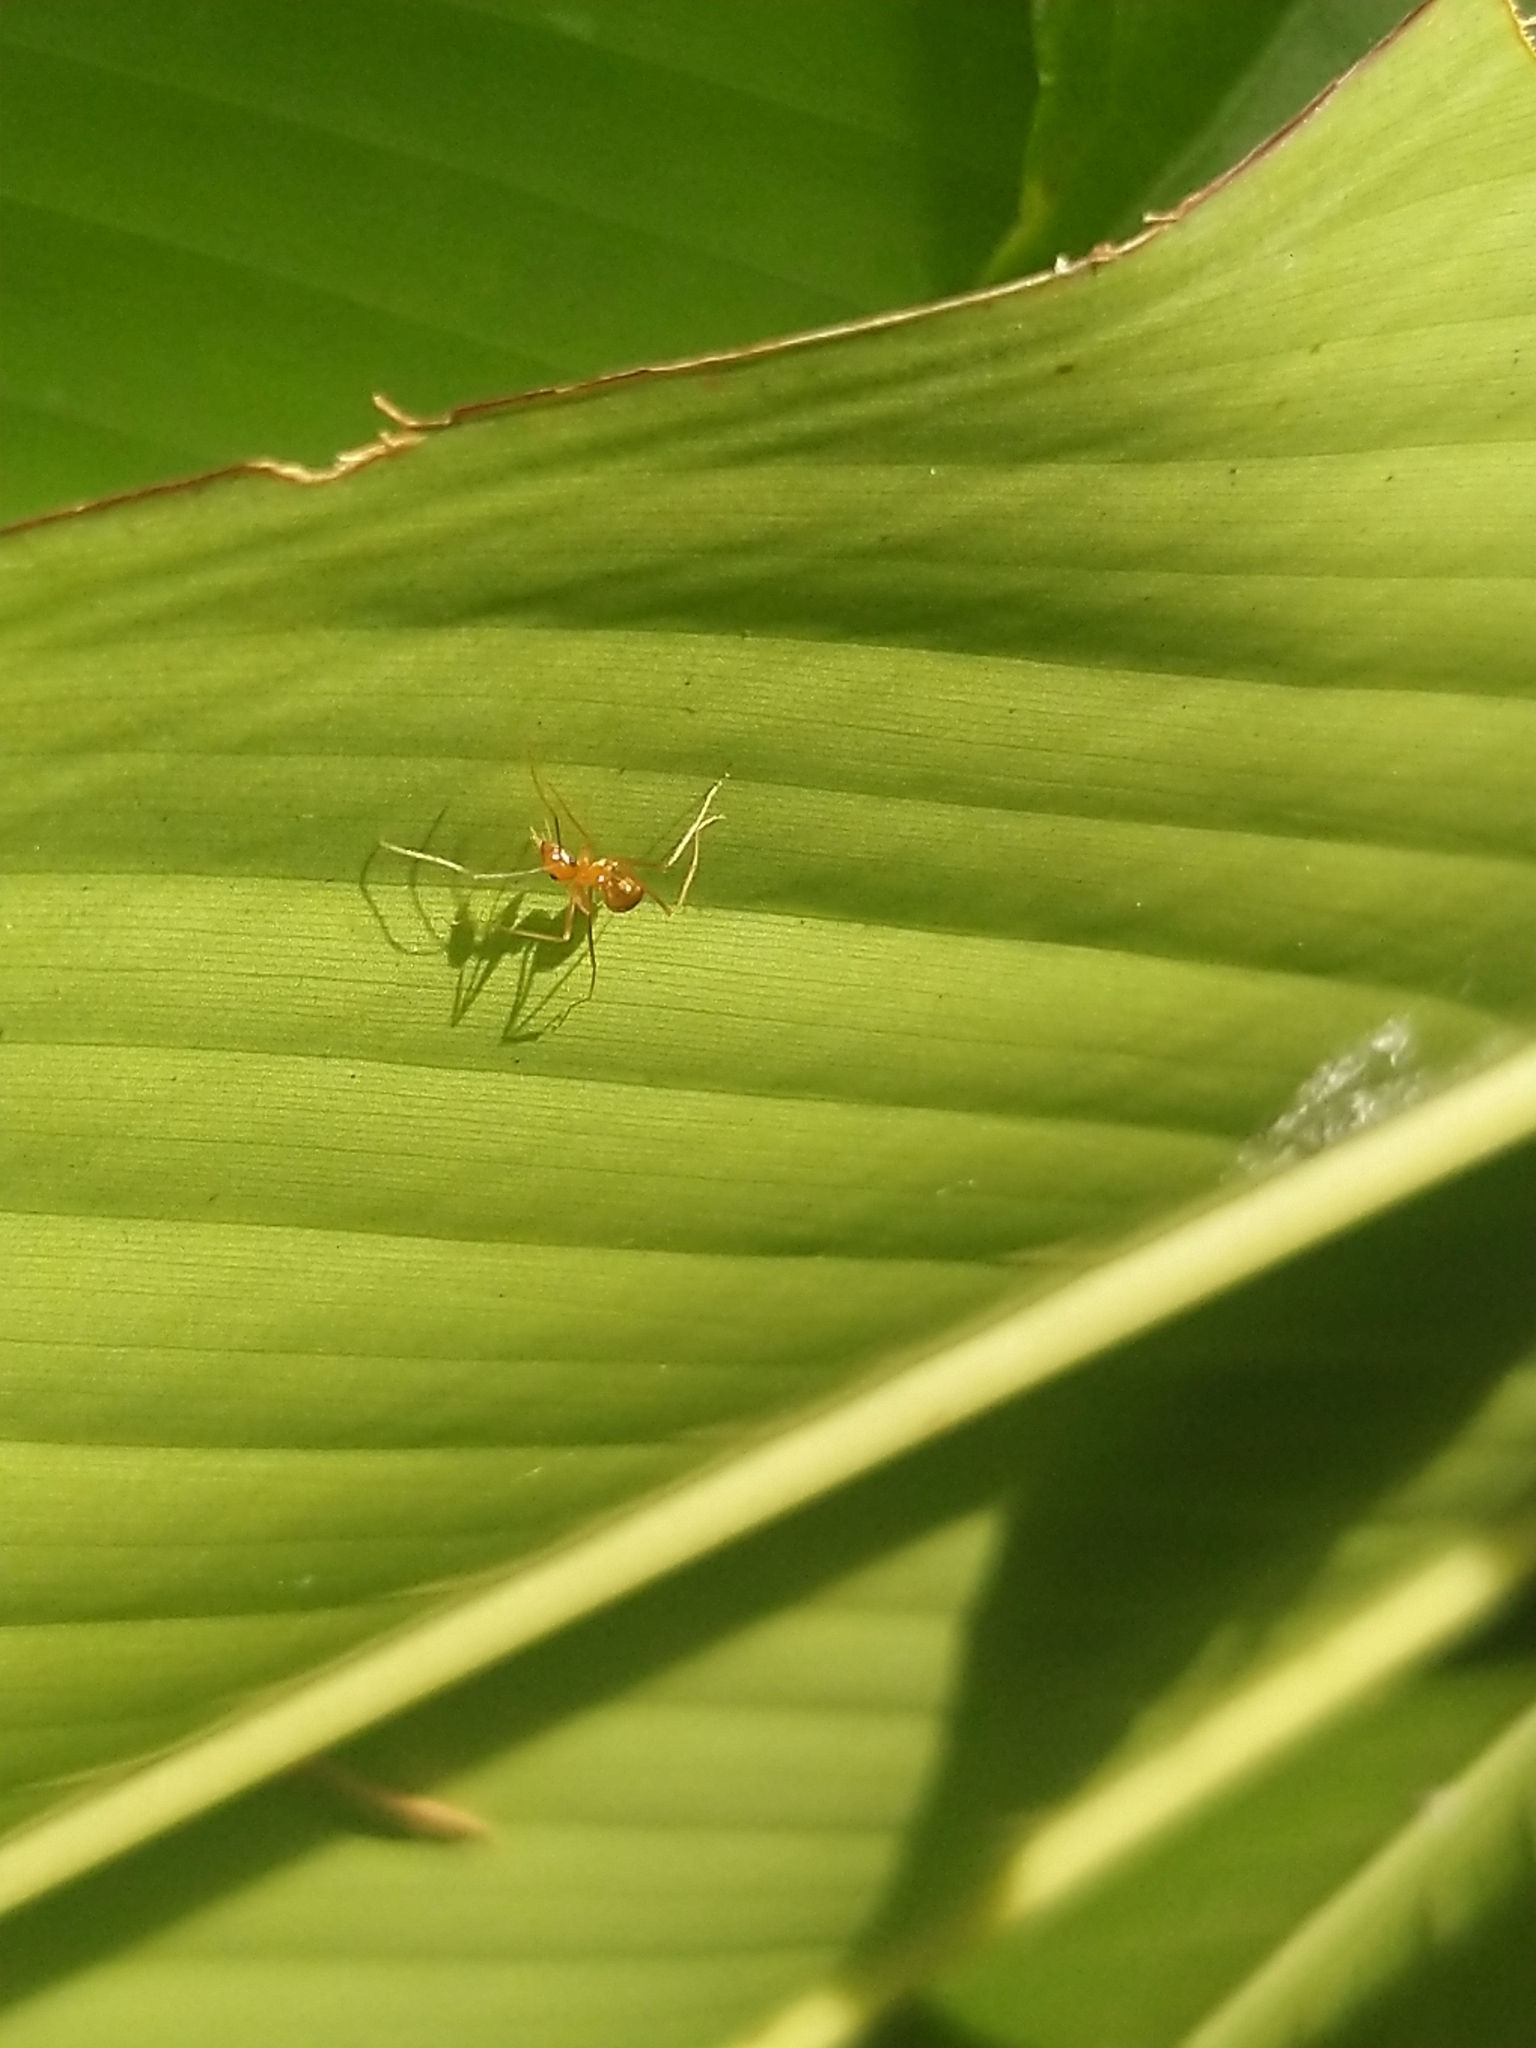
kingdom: Animalia
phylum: Arthropoda
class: Insecta
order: Hymenoptera
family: Formicidae
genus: Anoplolepis
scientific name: Anoplolepis gracilipes
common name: Ant
